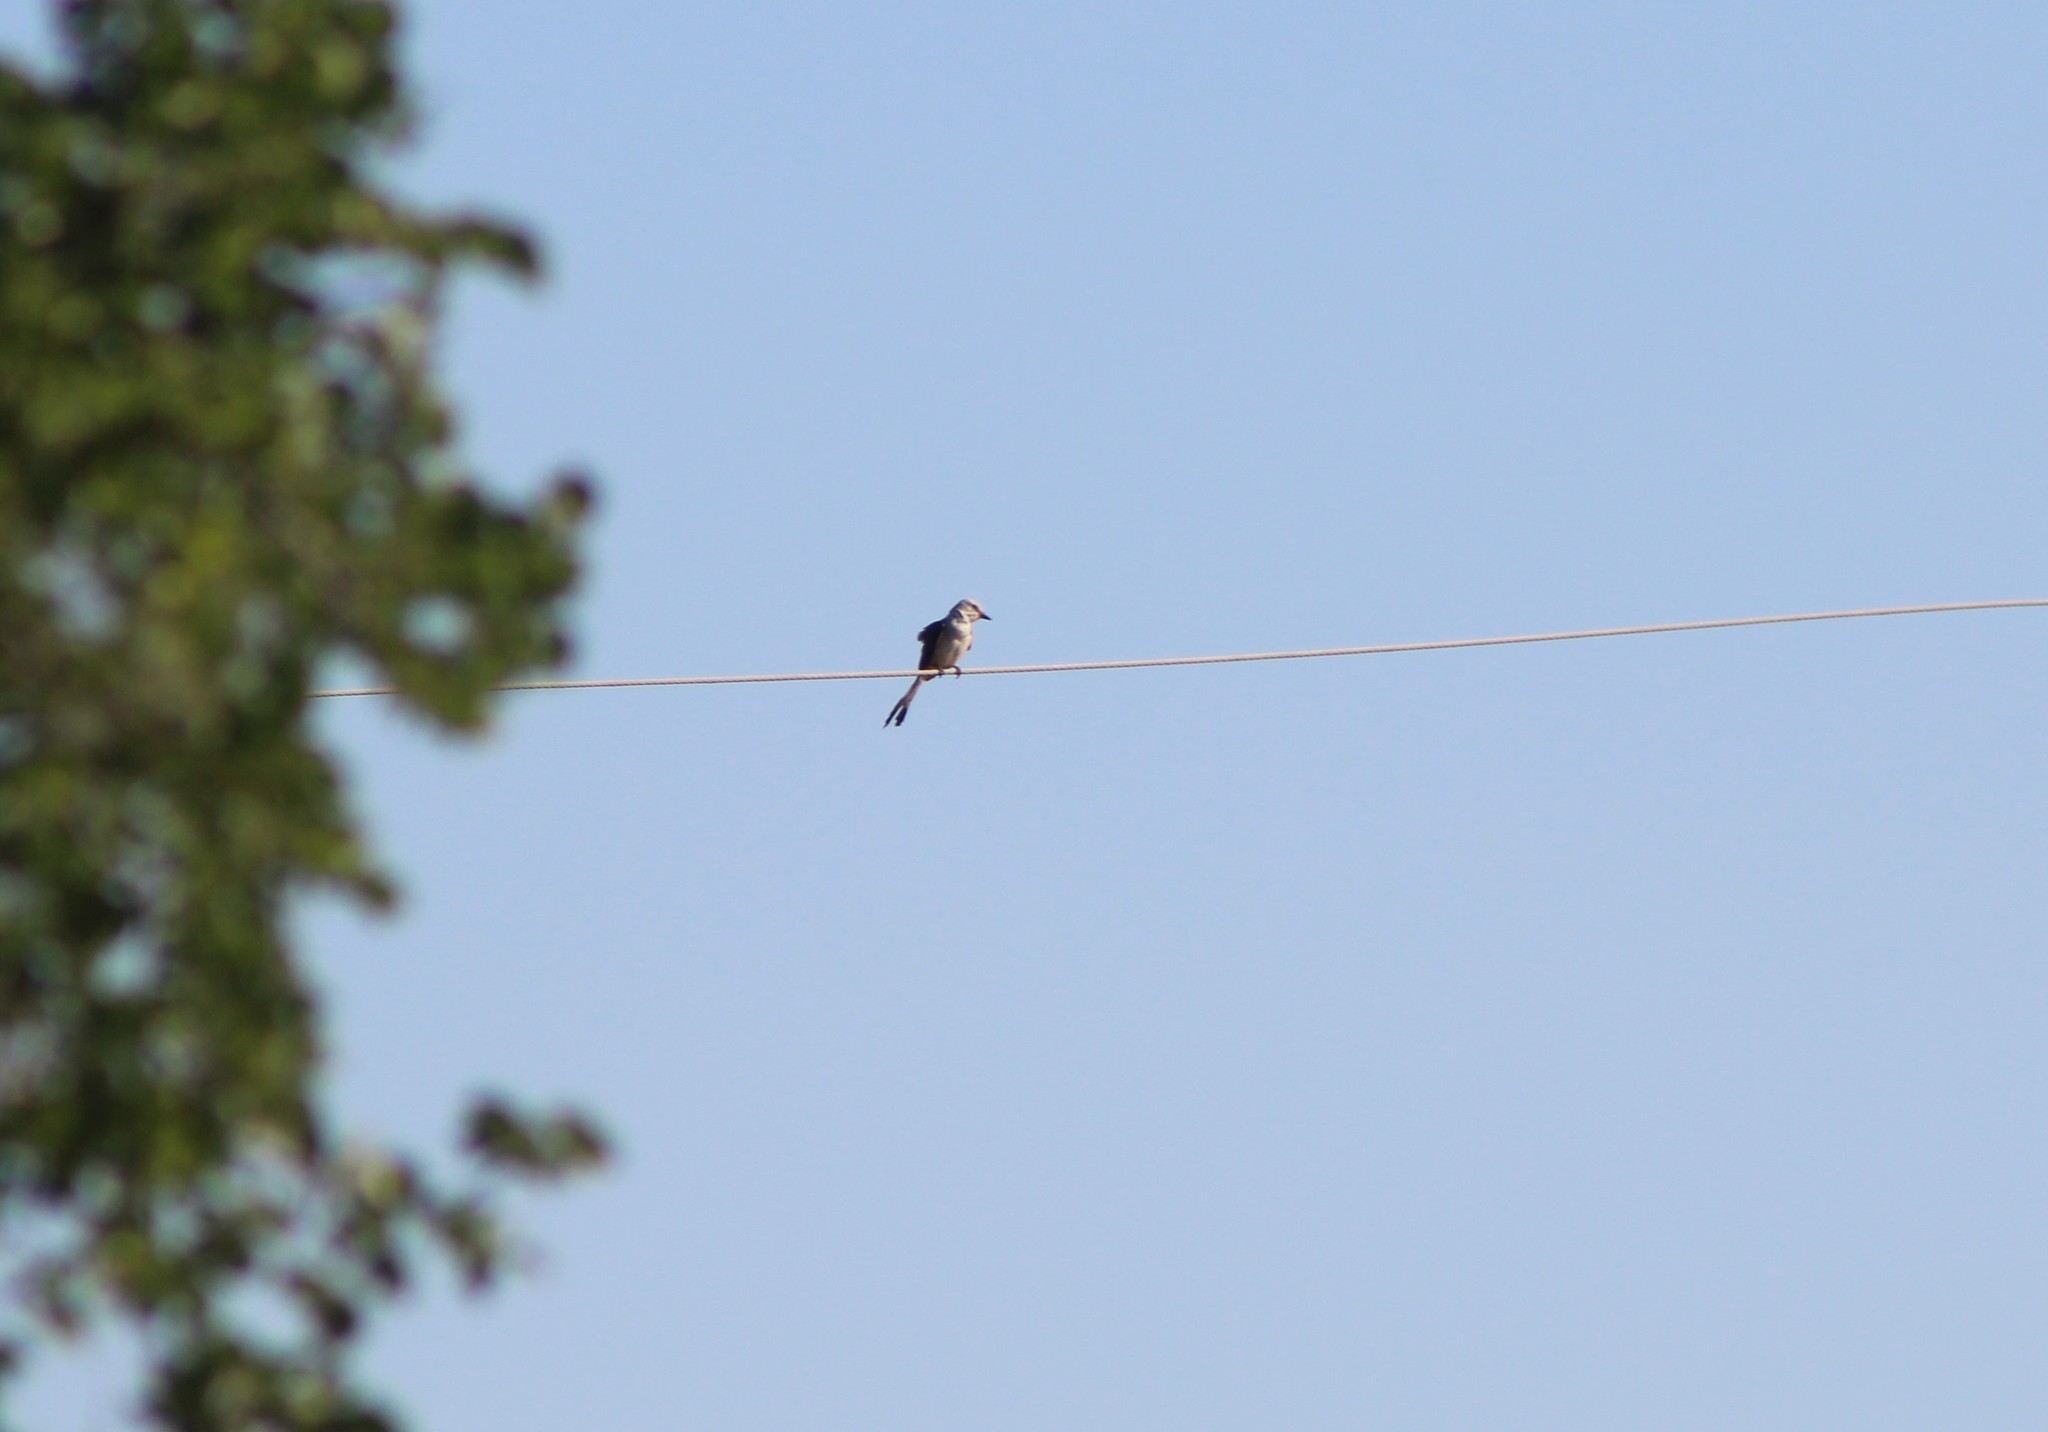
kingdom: Animalia
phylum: Chordata
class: Aves
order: Passeriformes
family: Tyrannidae
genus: Tyrannus
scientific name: Tyrannus forficatus
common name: Scissor-tailed flycatcher
